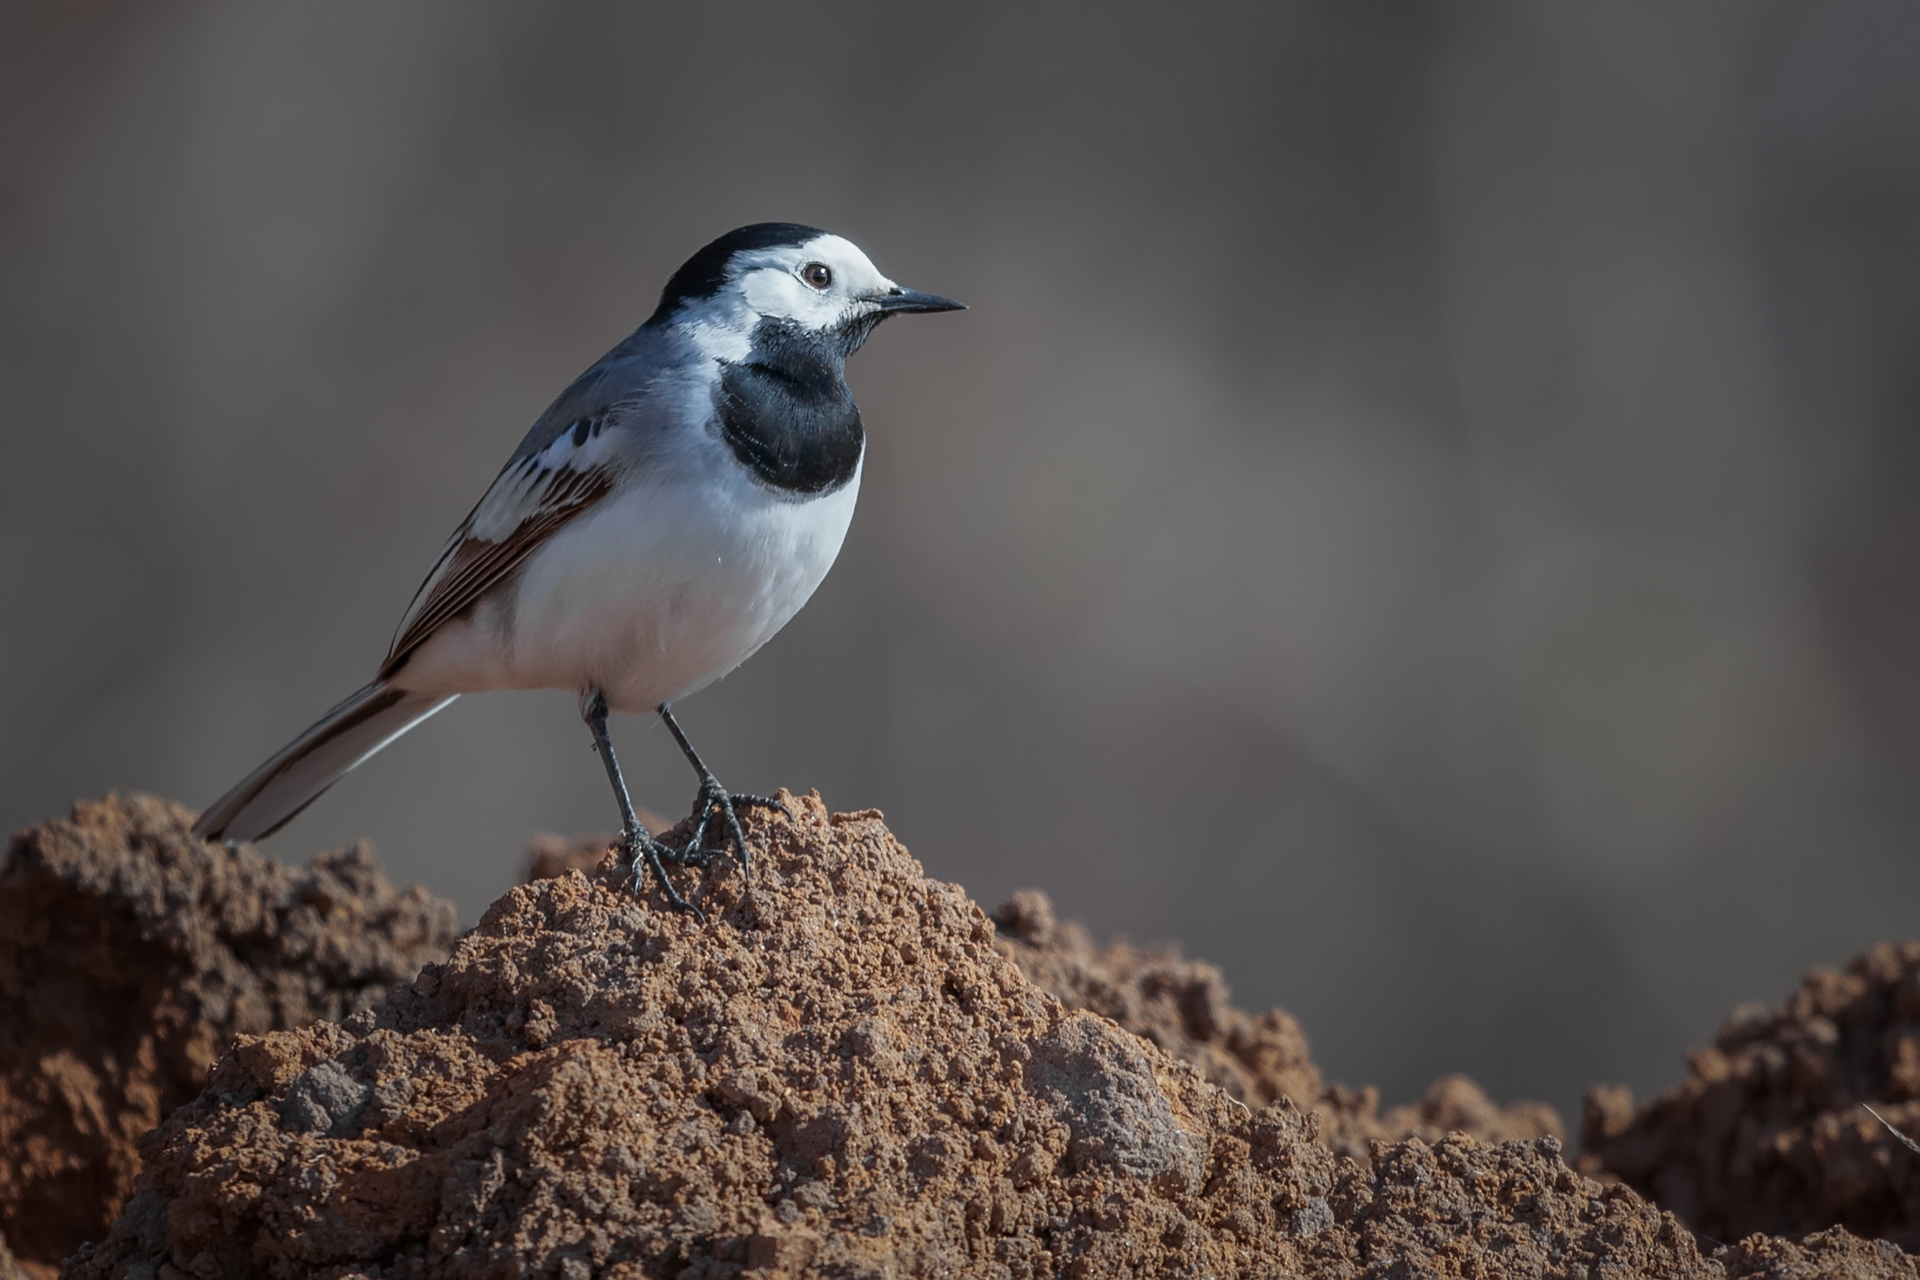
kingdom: Animalia
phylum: Chordata
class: Aves
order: Passeriformes
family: Motacillidae
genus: Motacilla
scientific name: Motacilla alba
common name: White wagtail
